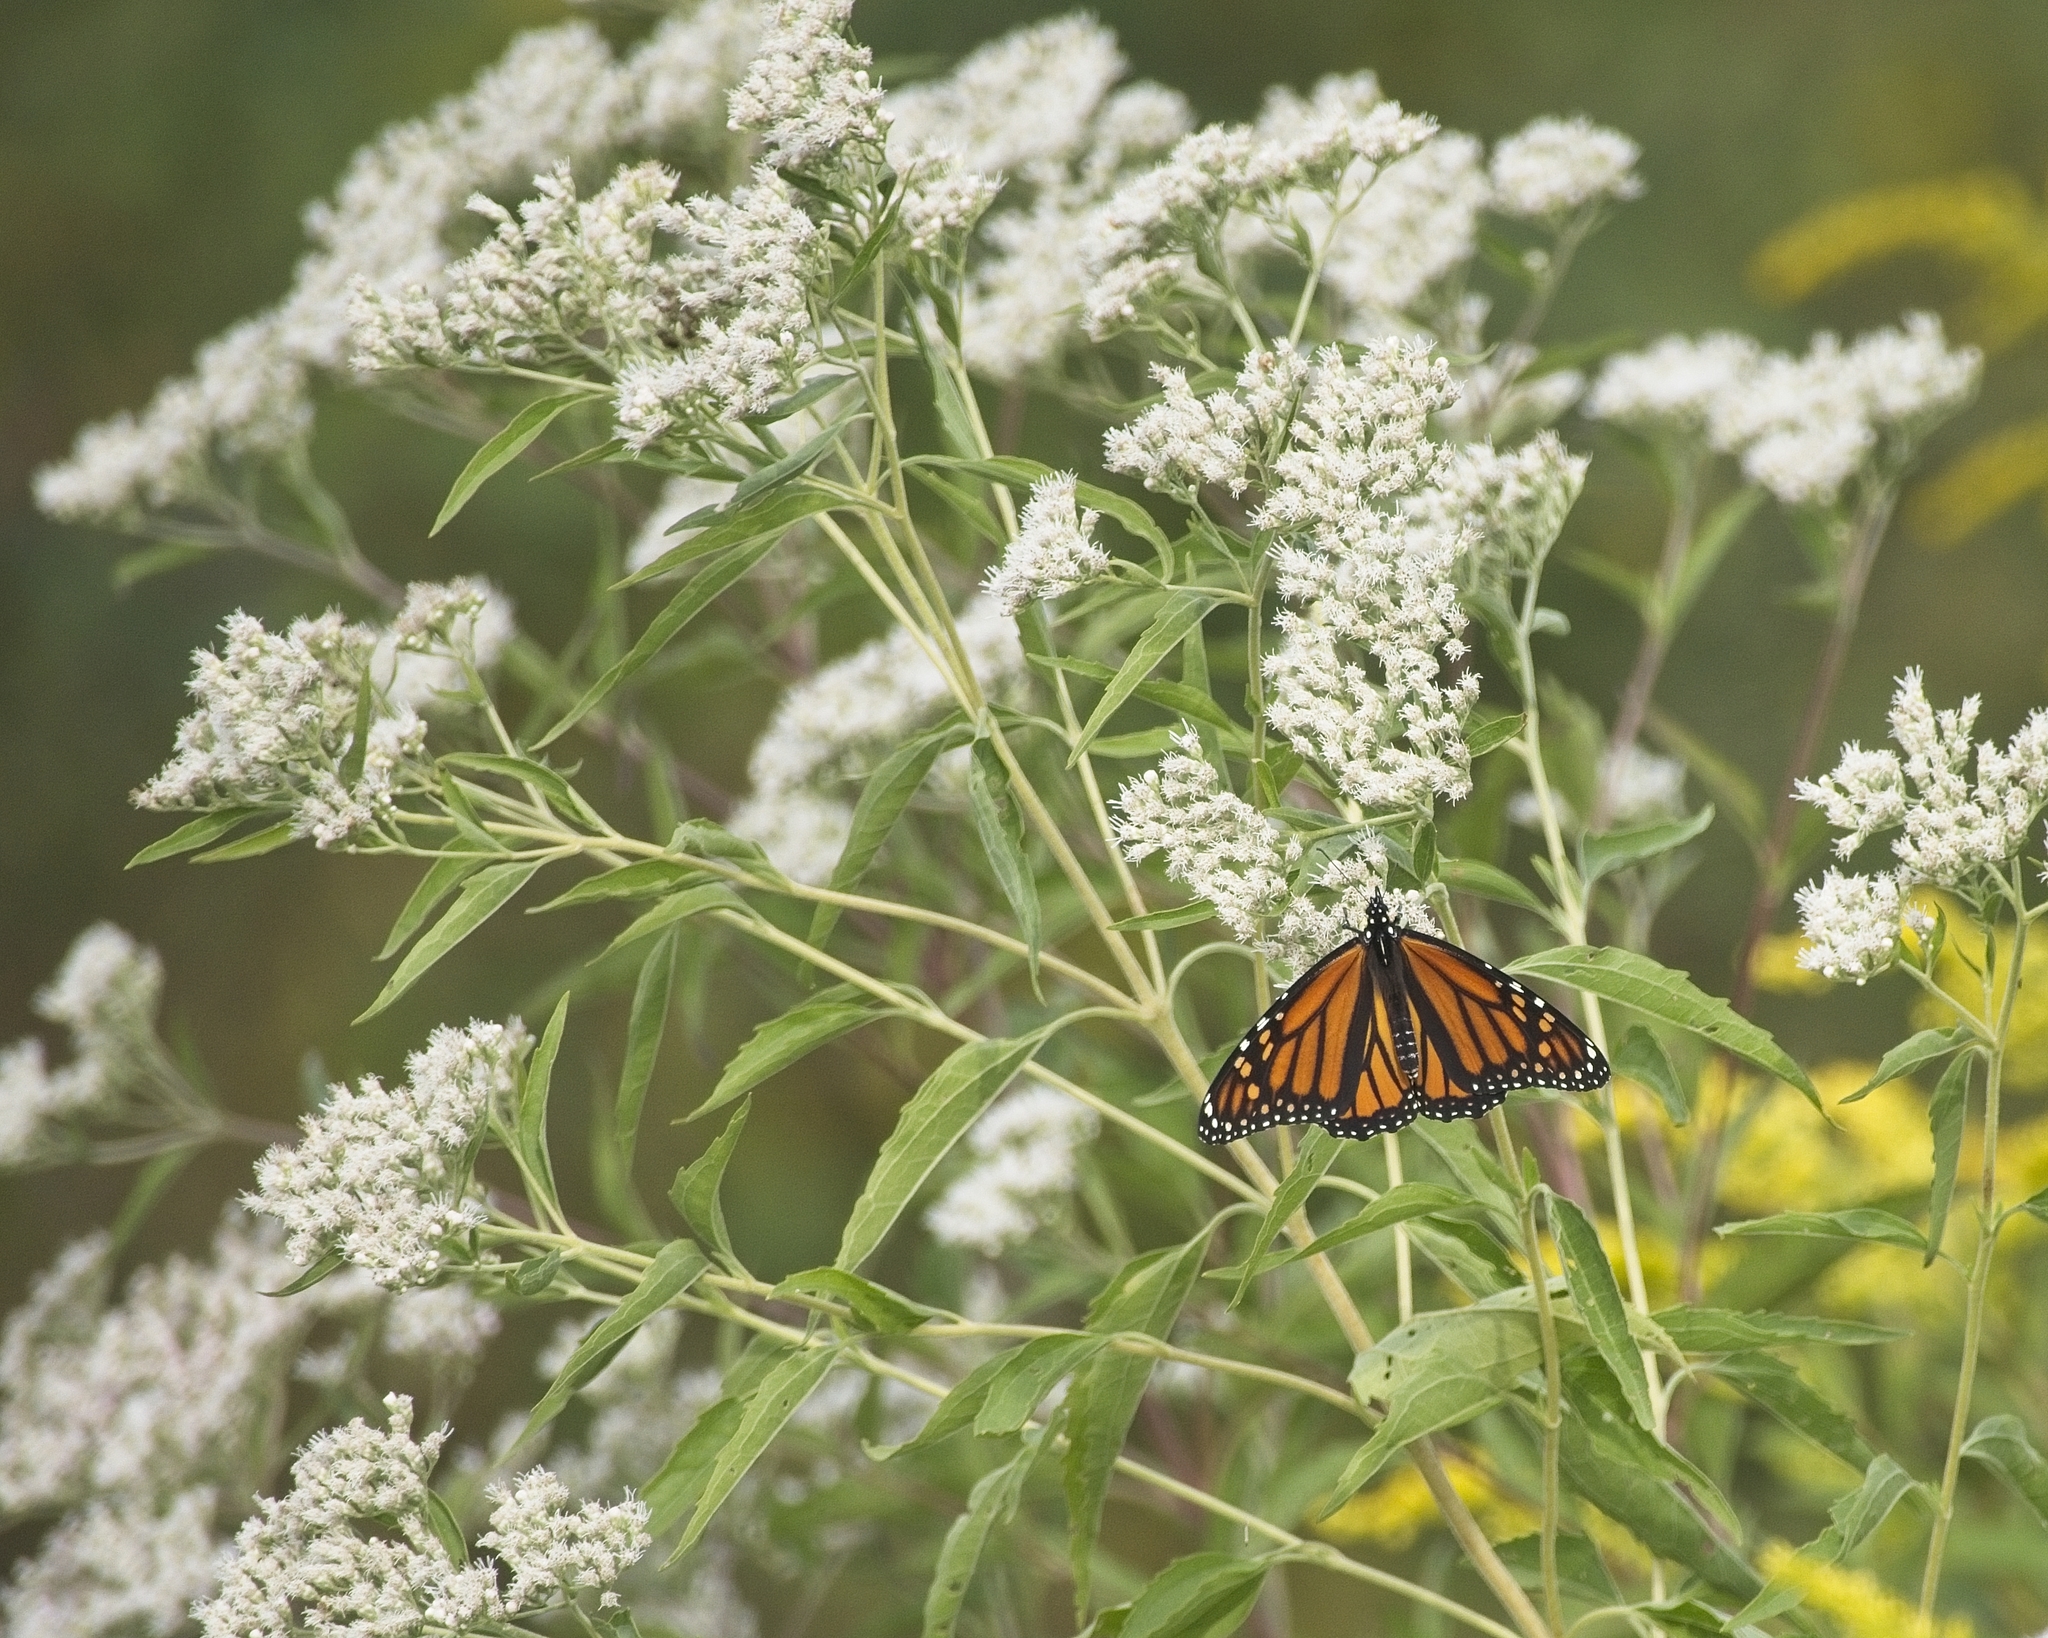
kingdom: Plantae
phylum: Tracheophyta
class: Magnoliopsida
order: Asterales
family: Asteraceae
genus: Eupatorium
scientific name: Eupatorium serotinum
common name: Late boneset
